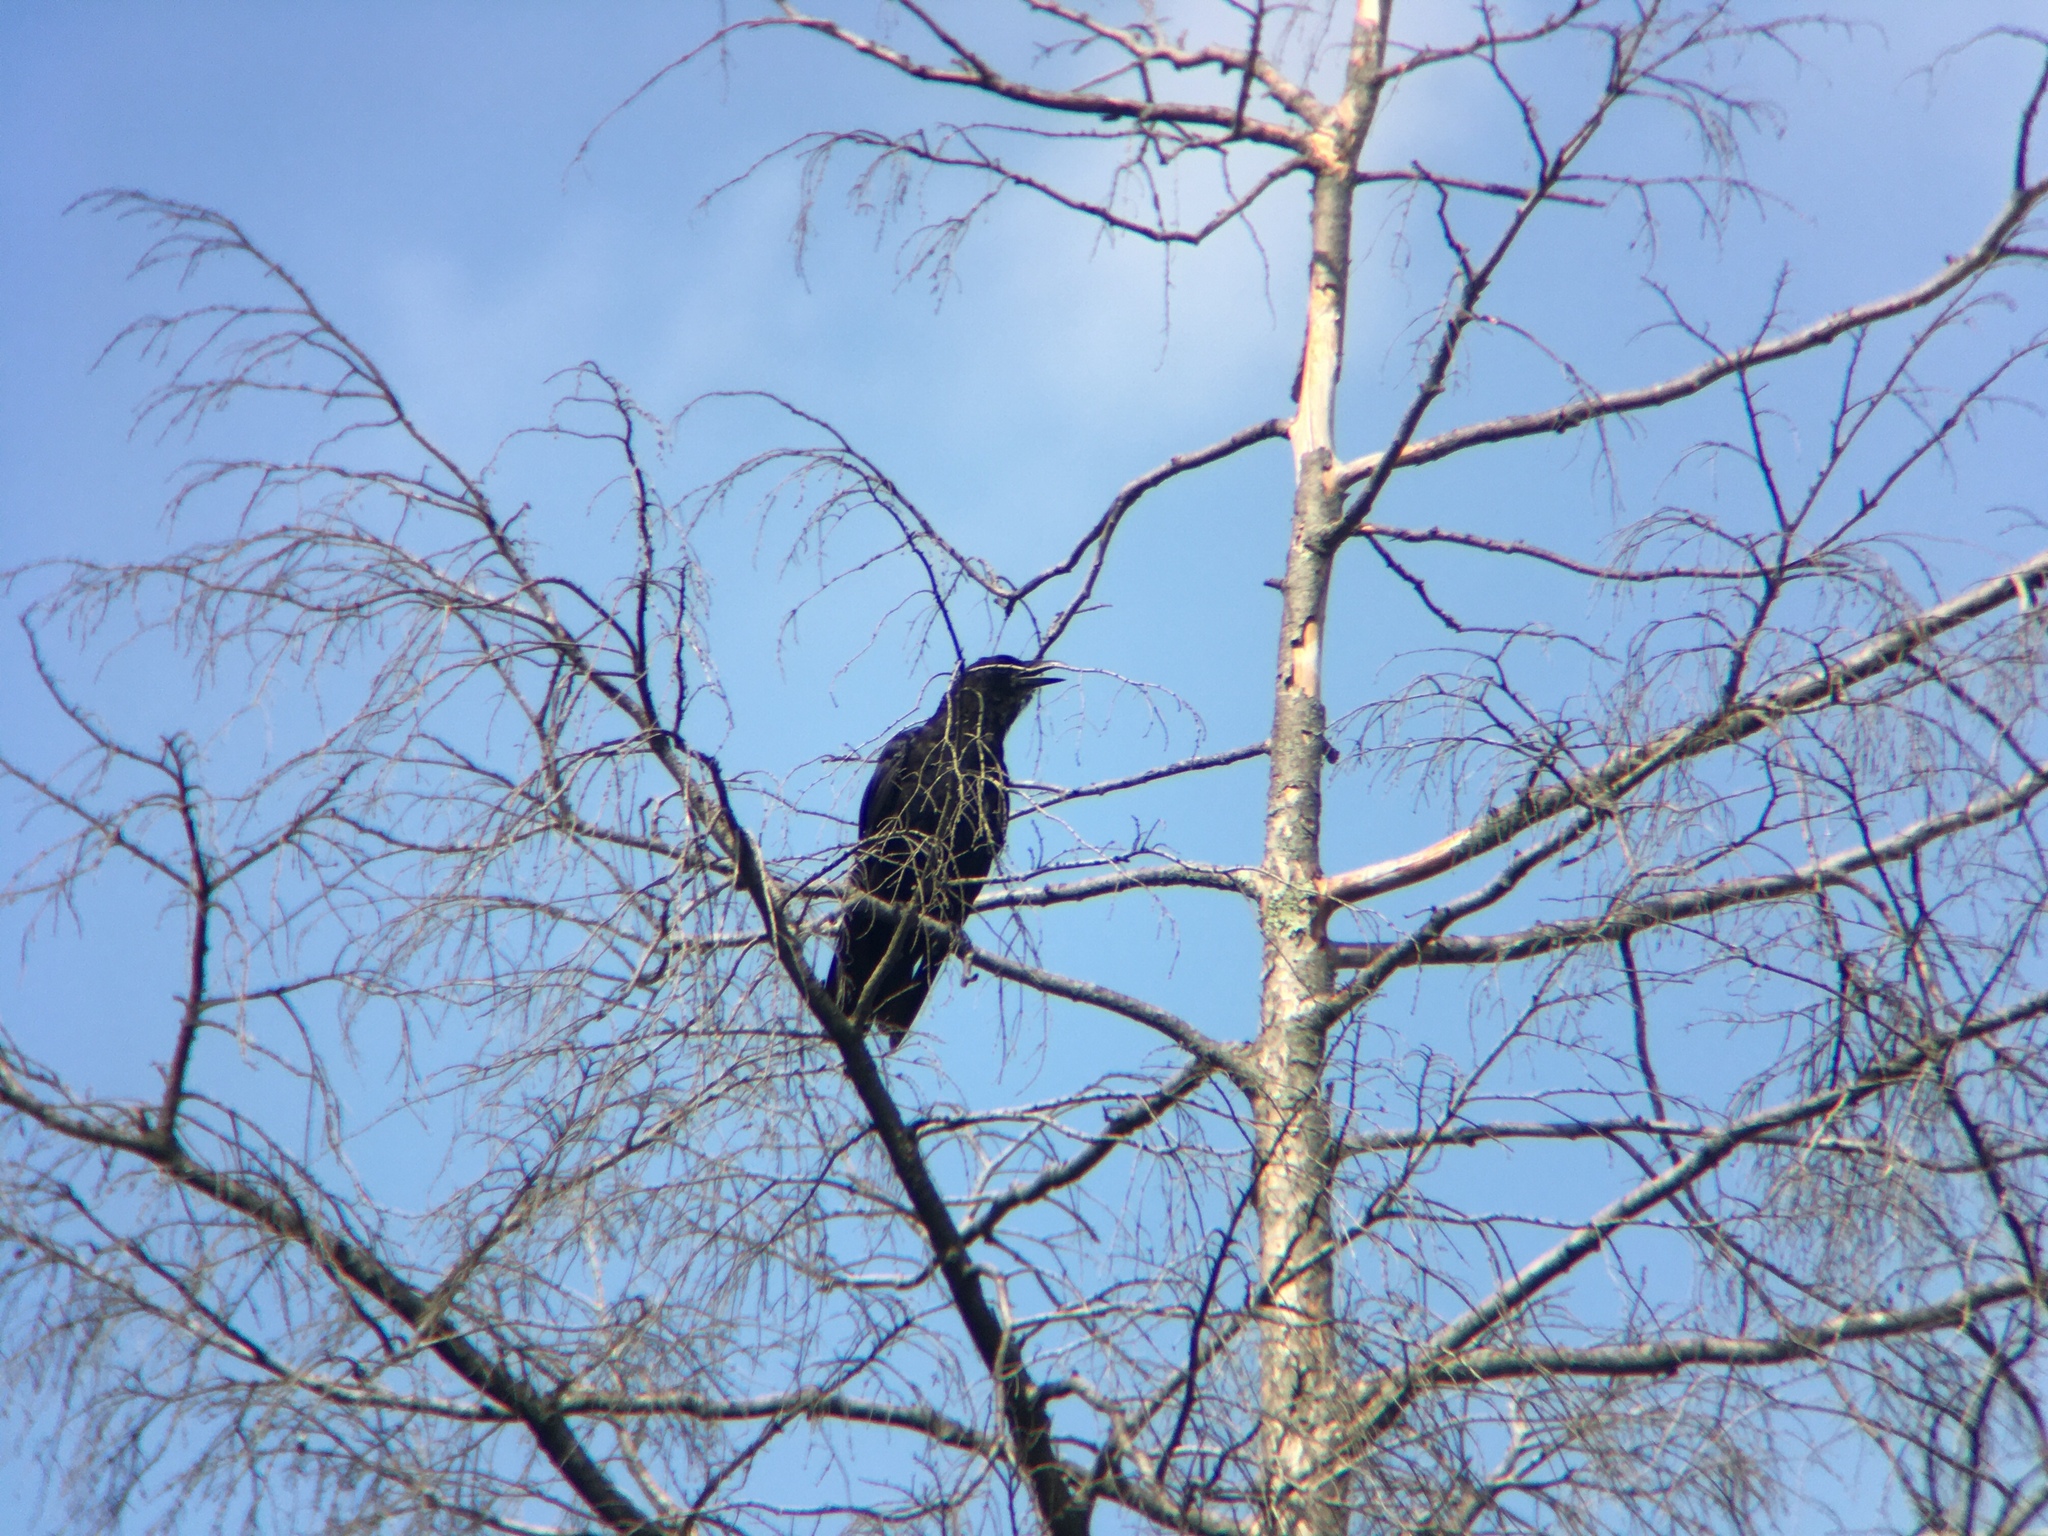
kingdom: Animalia
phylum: Chordata
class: Aves
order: Passeriformes
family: Corvidae
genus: Corvus
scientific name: Corvus brachyrhynchos
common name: American crow
